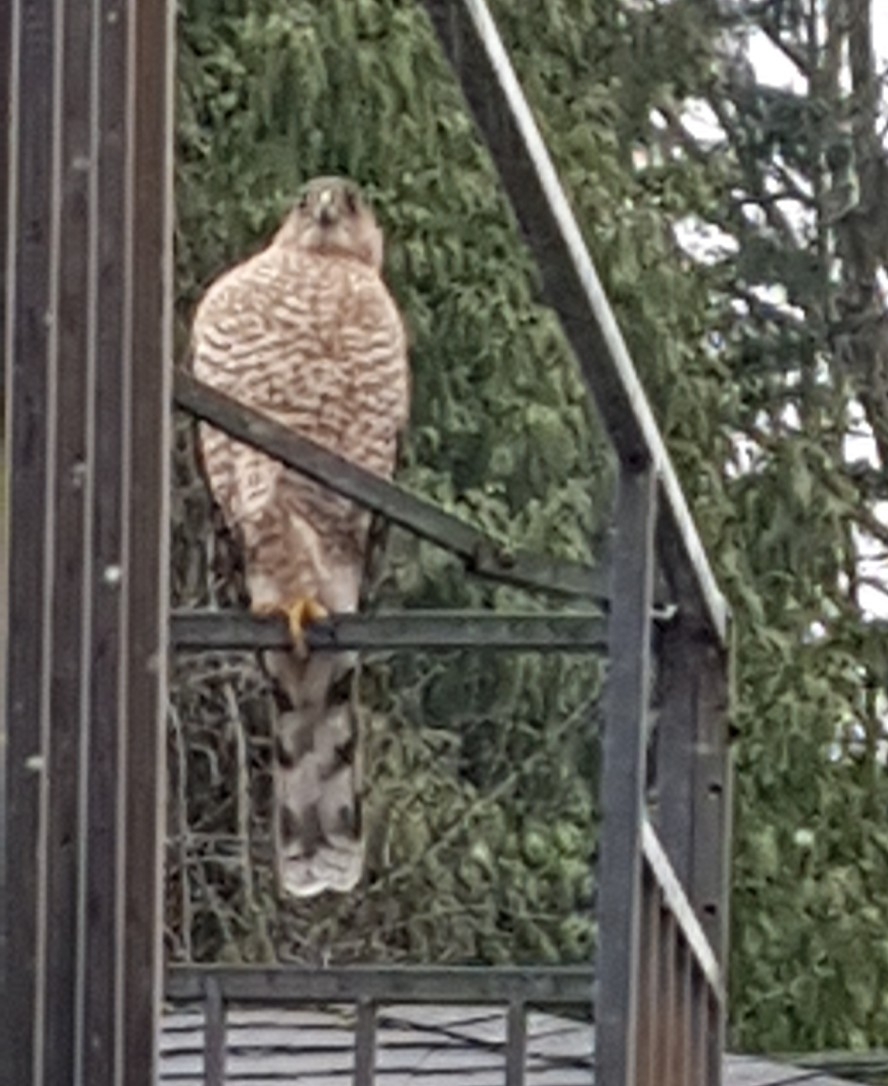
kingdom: Animalia
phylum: Chordata
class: Aves
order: Accipitriformes
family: Accipitridae
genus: Accipiter
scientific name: Accipiter cooperii
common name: Cooper's hawk
